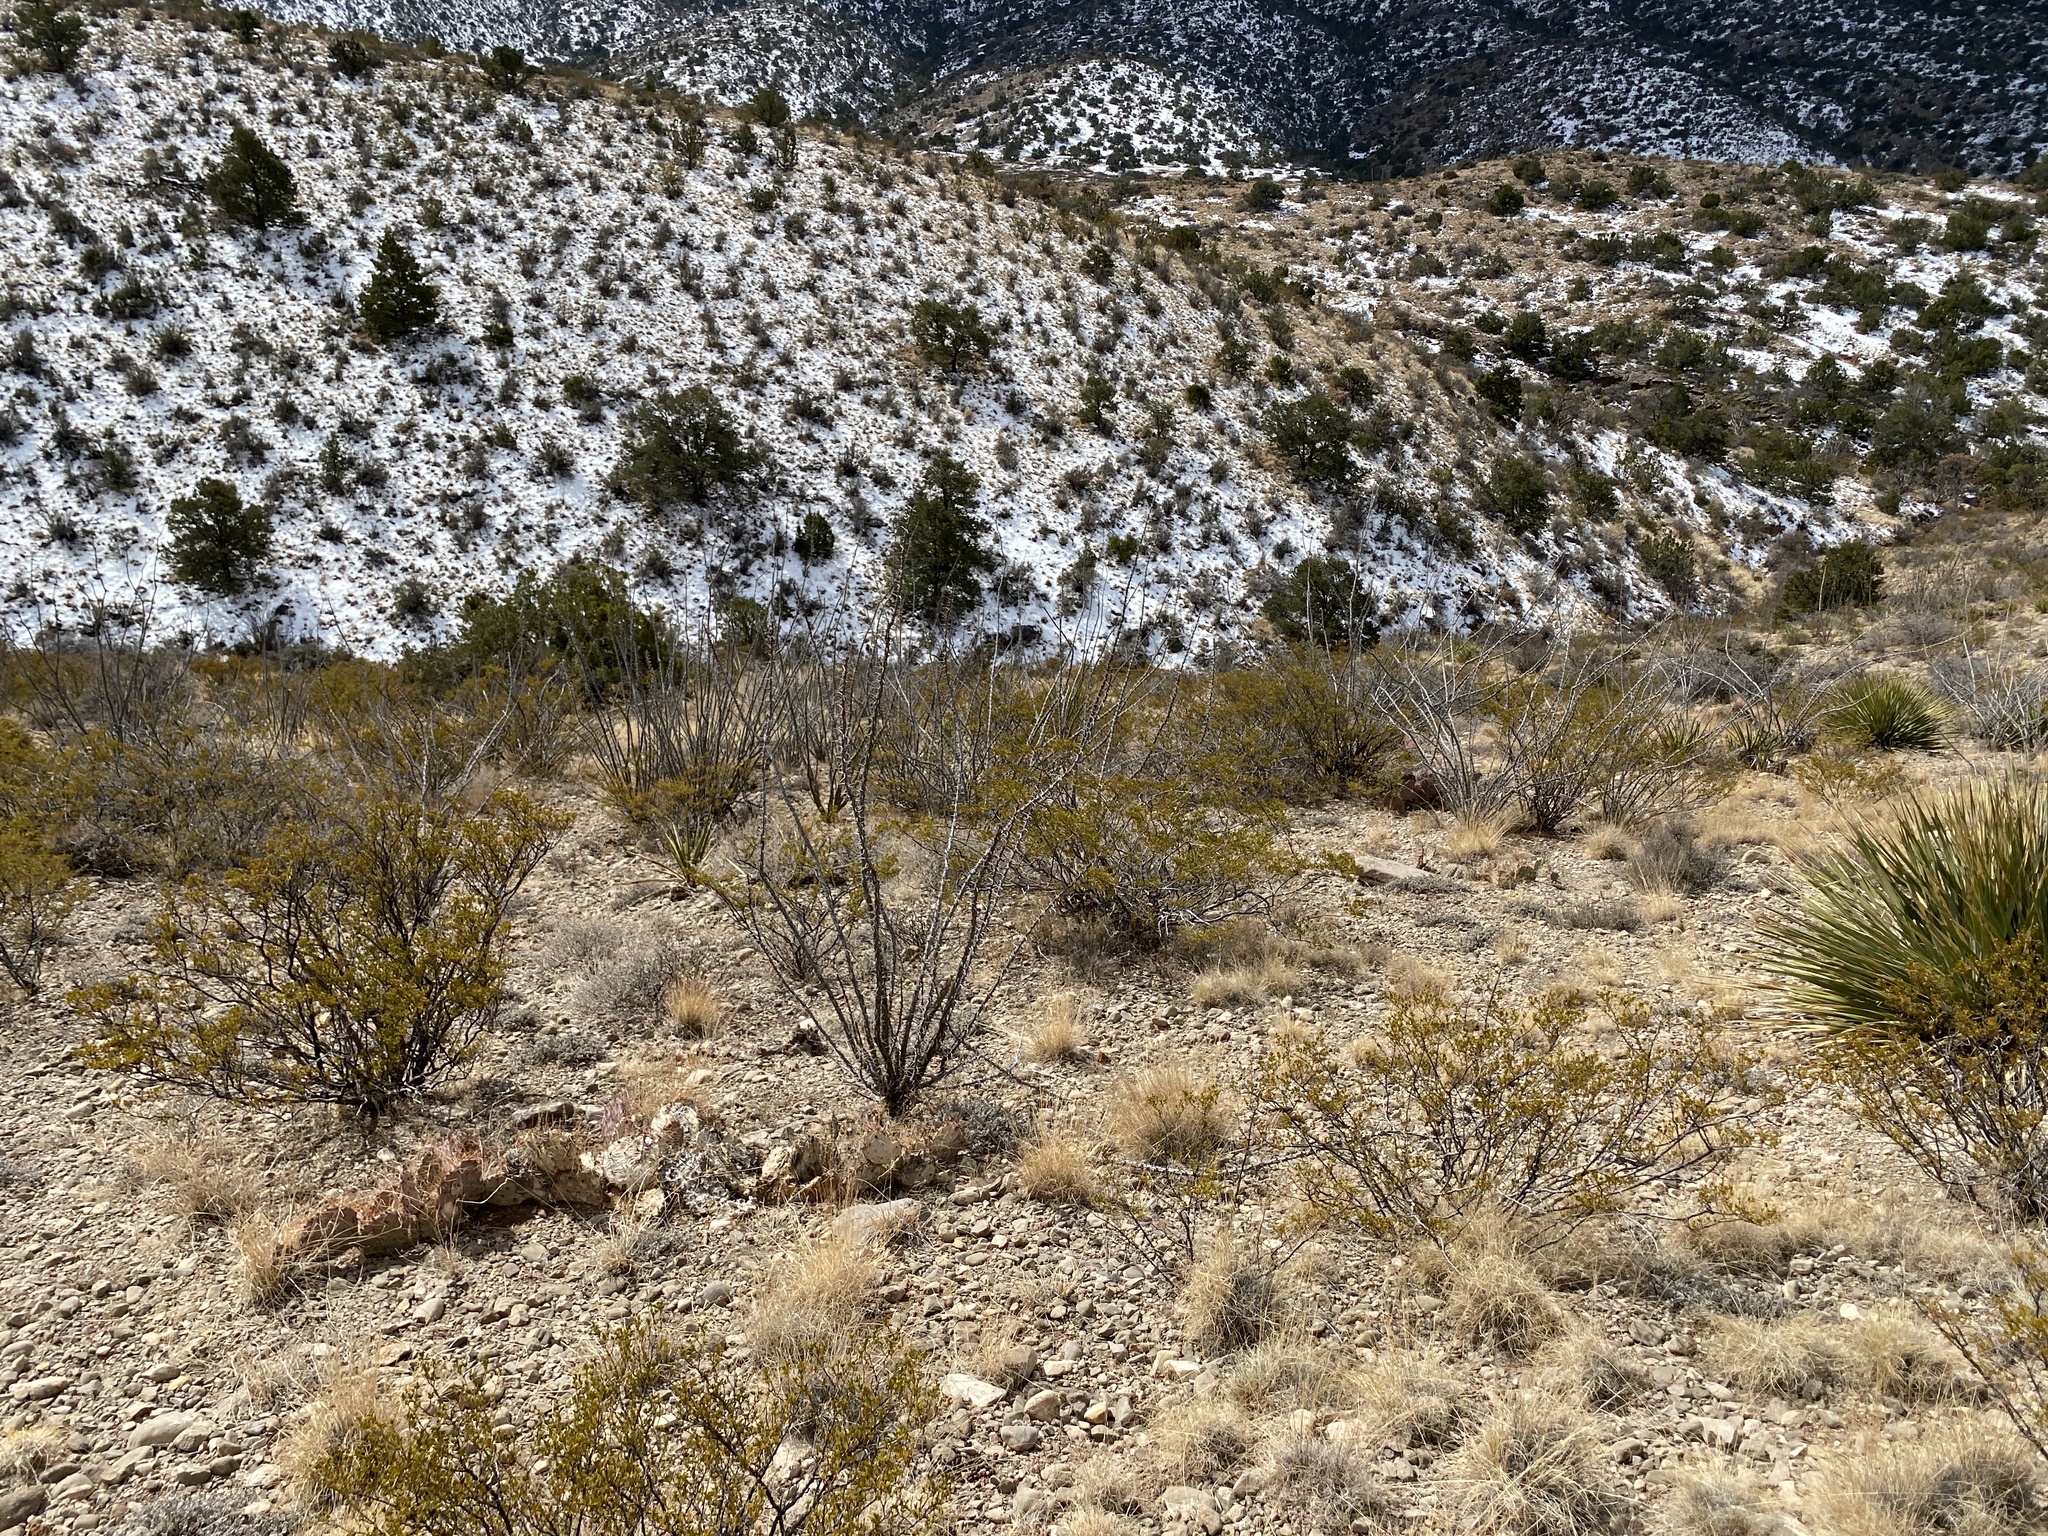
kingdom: Plantae
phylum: Tracheophyta
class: Magnoliopsida
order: Ericales
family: Fouquieriaceae
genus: Fouquieria
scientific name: Fouquieria splendens
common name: Vine-cactus
